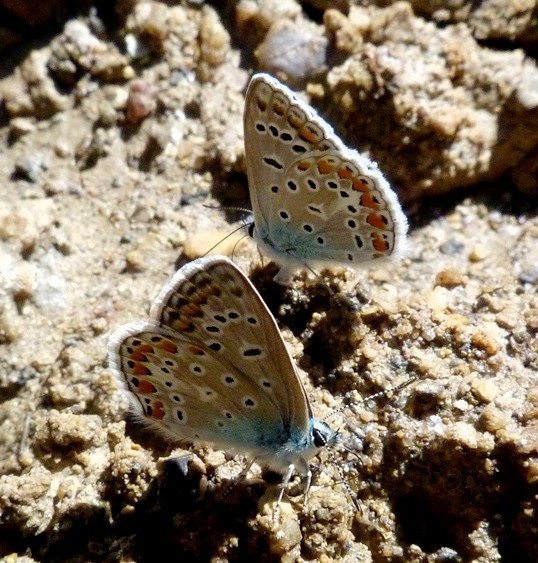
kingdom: Animalia
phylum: Arthropoda
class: Insecta
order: Lepidoptera
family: Lycaenidae
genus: Polyommatus
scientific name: Polyommatus icarus
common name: Common blue
